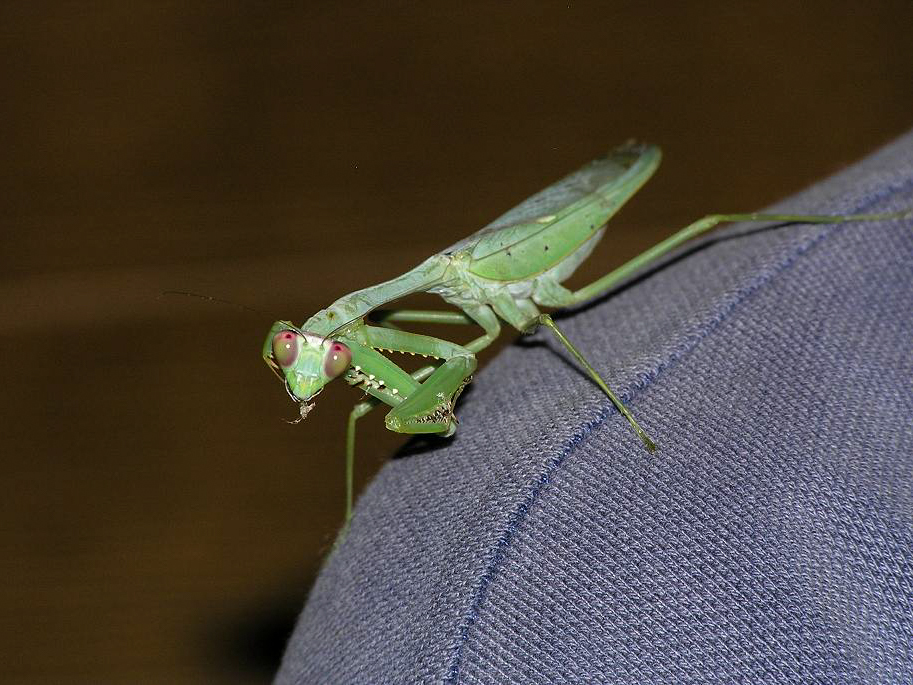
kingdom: Animalia
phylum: Arthropoda
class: Insecta
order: Mantodea
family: Mantidae
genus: Hierodula
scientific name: Hierodula dyaka
